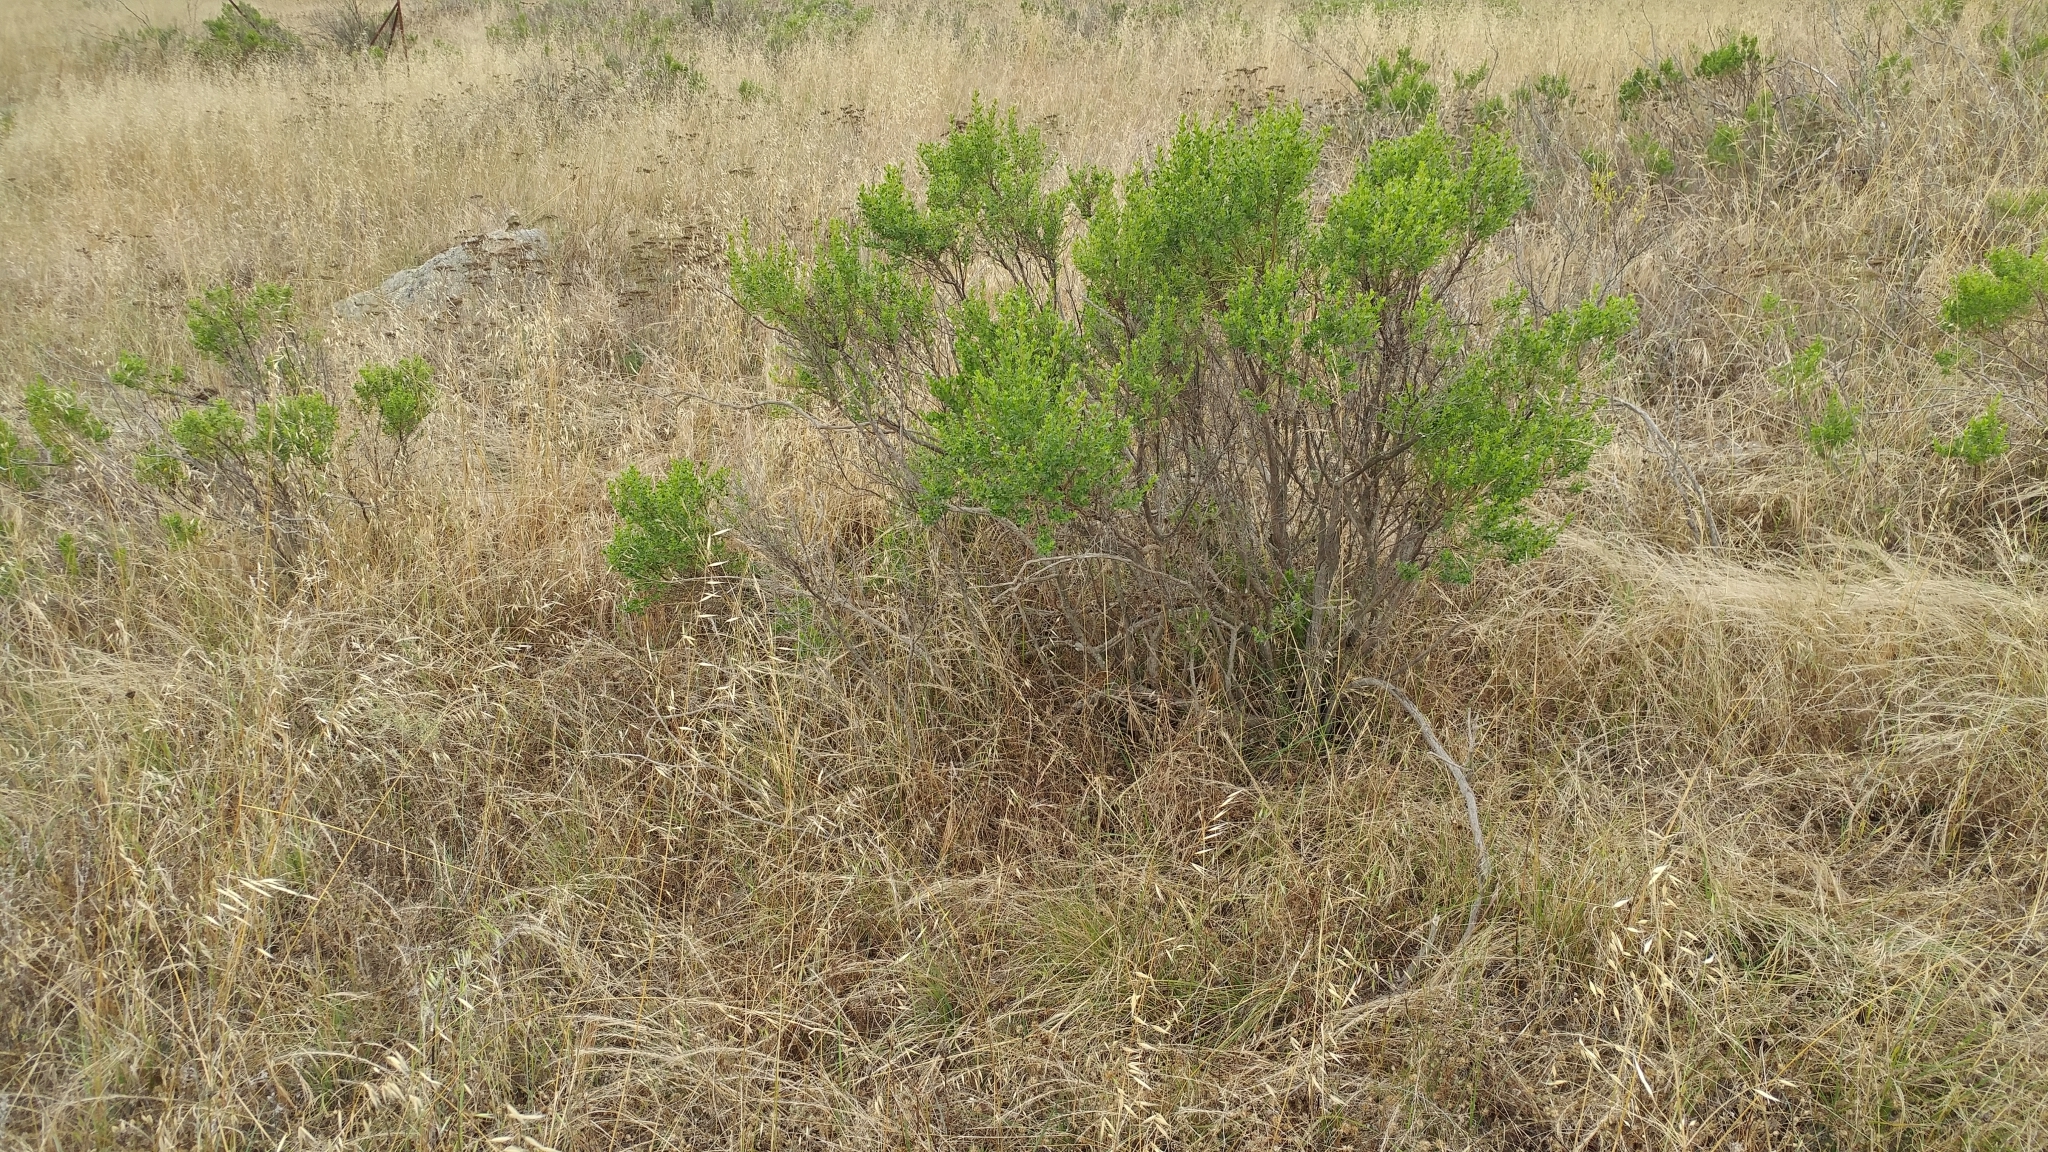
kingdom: Plantae
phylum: Tracheophyta
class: Magnoliopsida
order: Asterales
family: Asteraceae
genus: Baccharis
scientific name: Baccharis pilularis
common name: Coyotebrush
